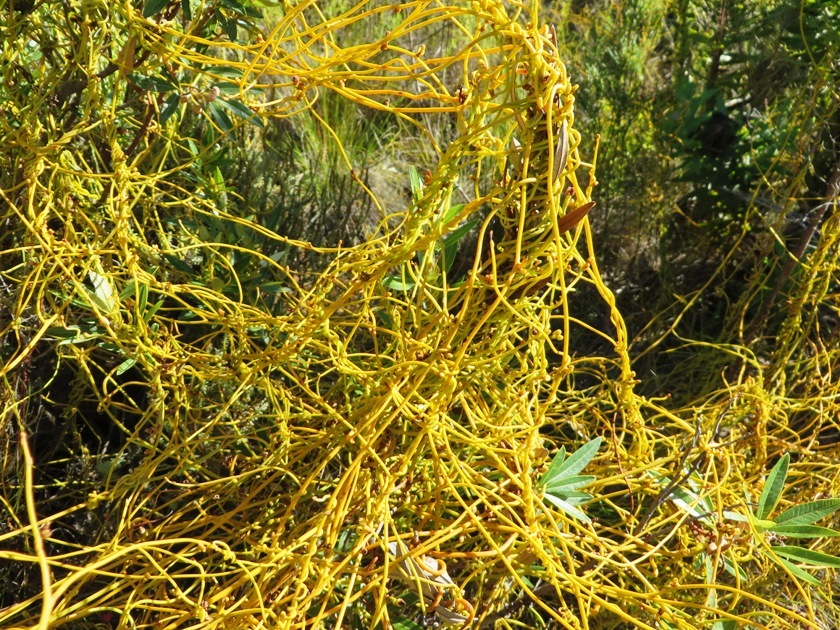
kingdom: Plantae
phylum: Tracheophyta
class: Magnoliopsida
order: Laurales
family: Lauraceae
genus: Cassytha
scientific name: Cassytha ciliolata
